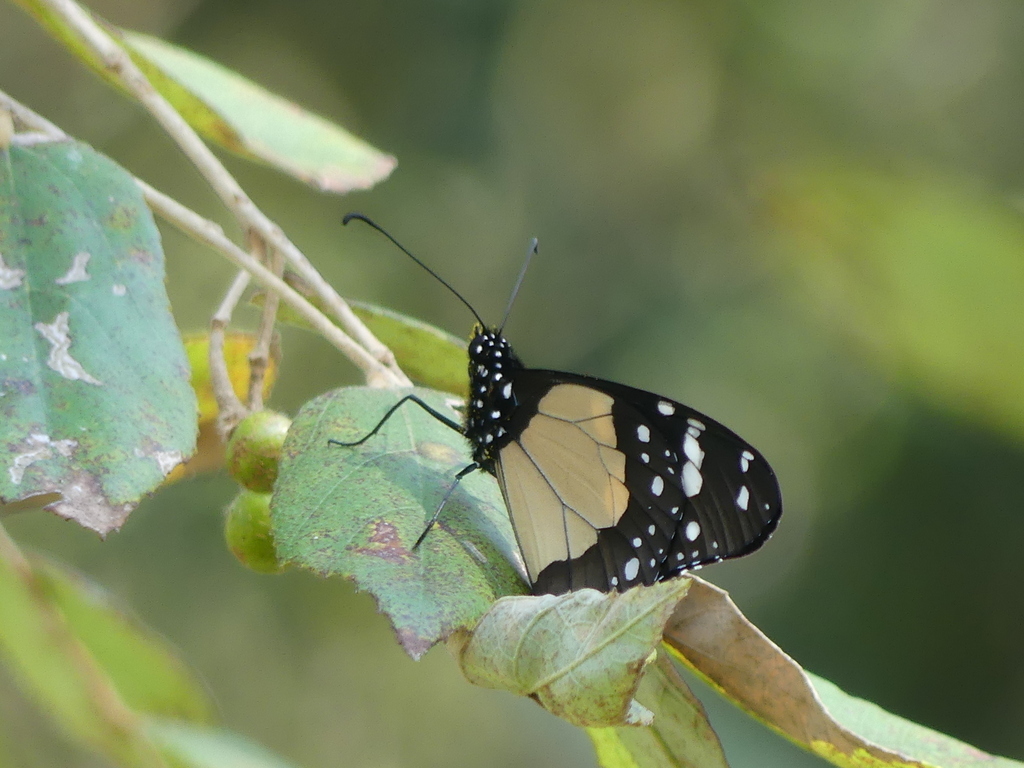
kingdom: Animalia
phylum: Arthropoda
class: Insecta
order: Lepidoptera
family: Nymphalidae
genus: Amauris
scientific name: Amauris echeria
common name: Chief
